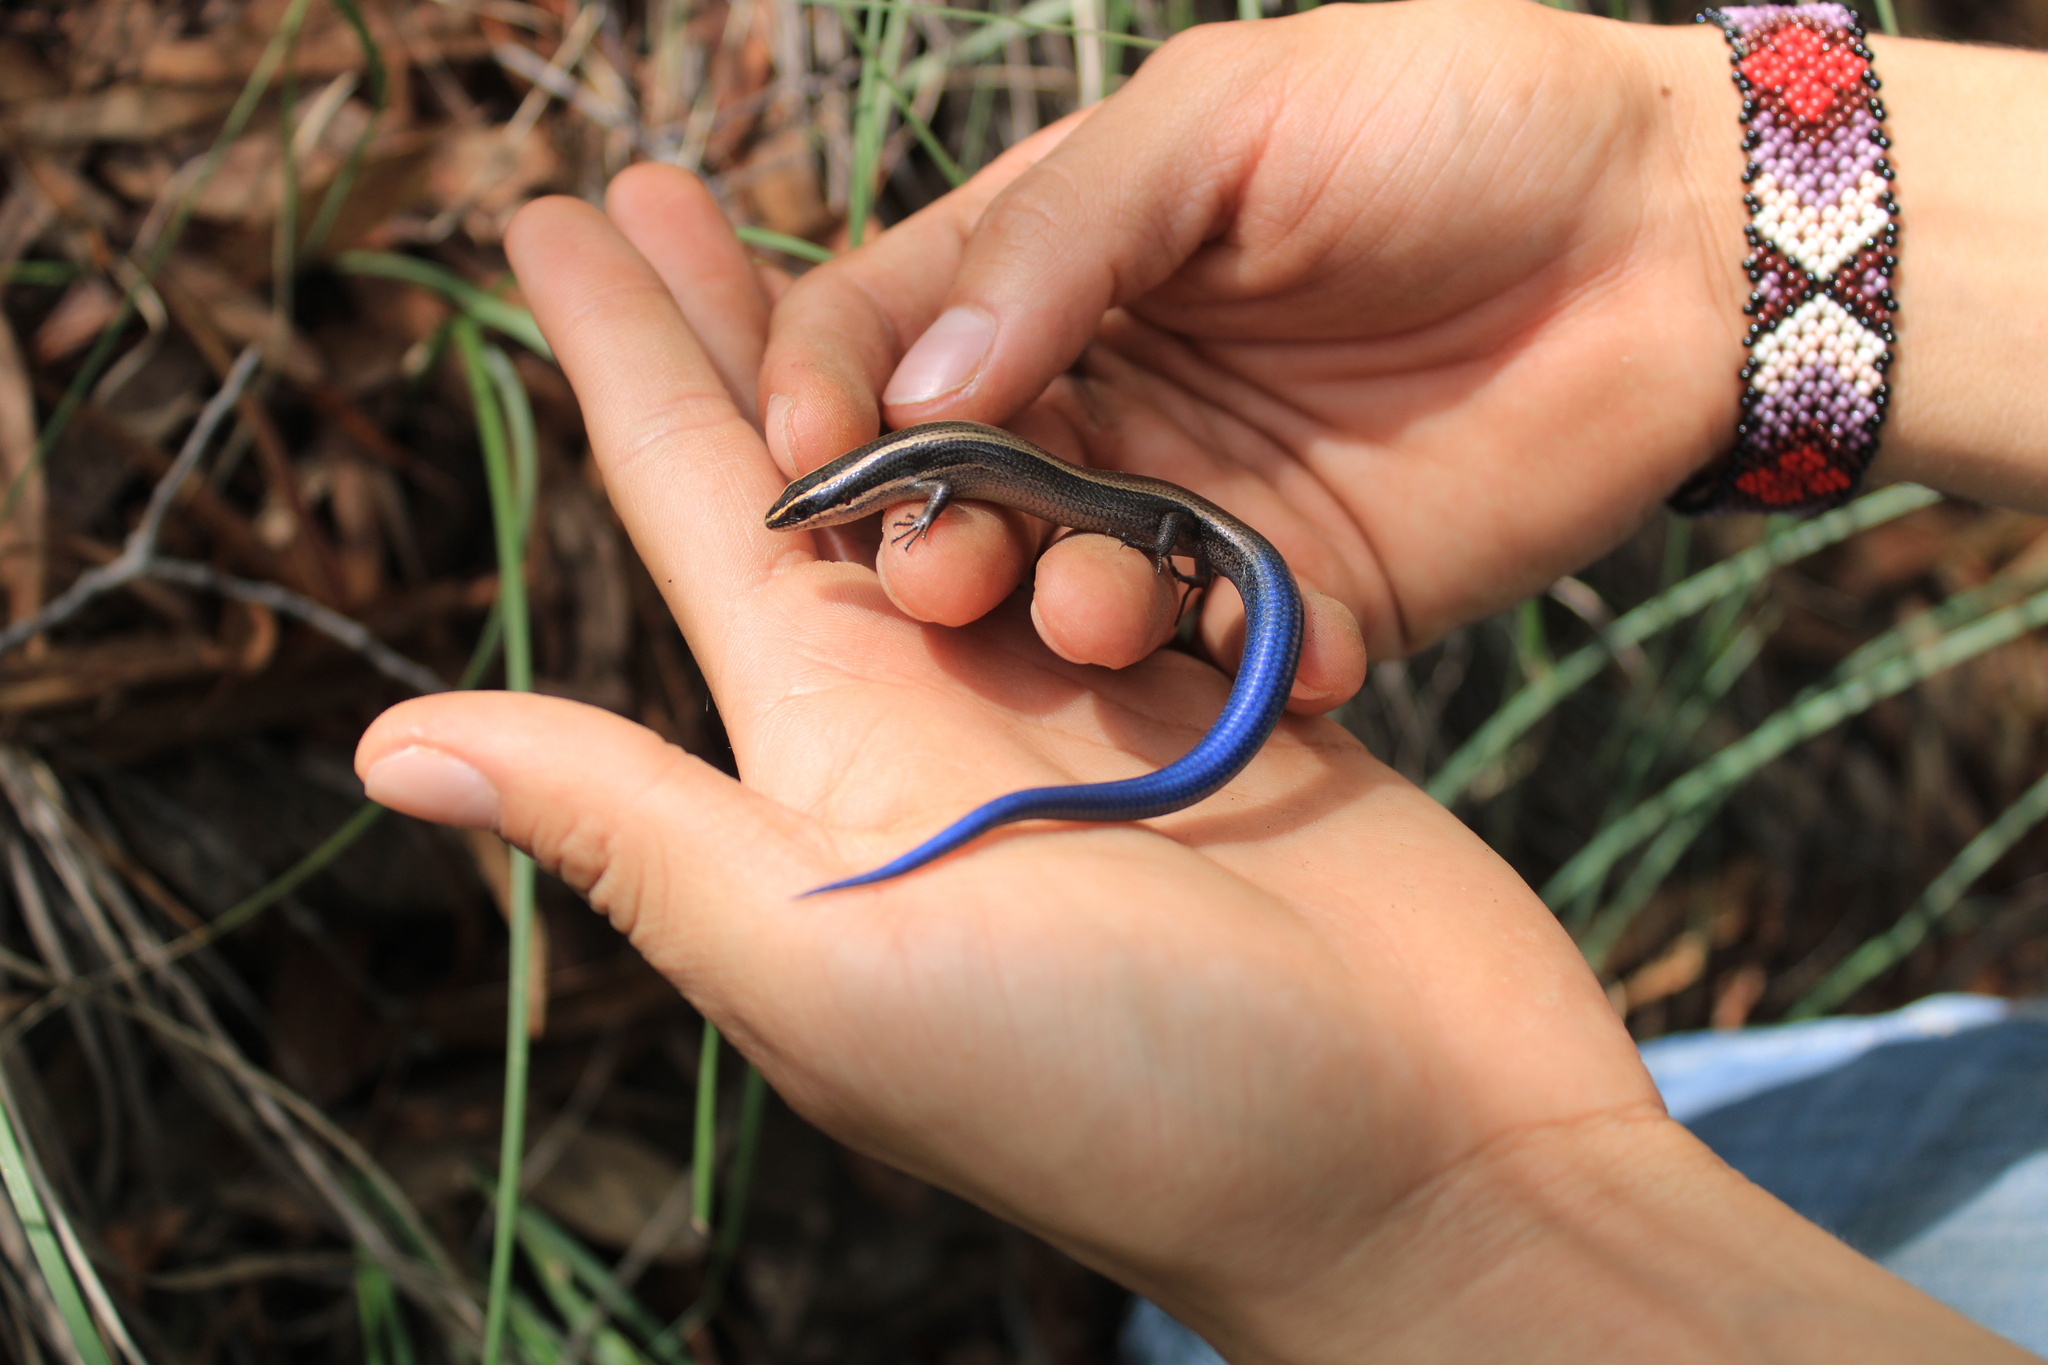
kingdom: Animalia
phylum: Chordata
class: Squamata
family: Scincidae
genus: Plestiodon
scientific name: Plestiodon callicephalus
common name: Mountain skink
